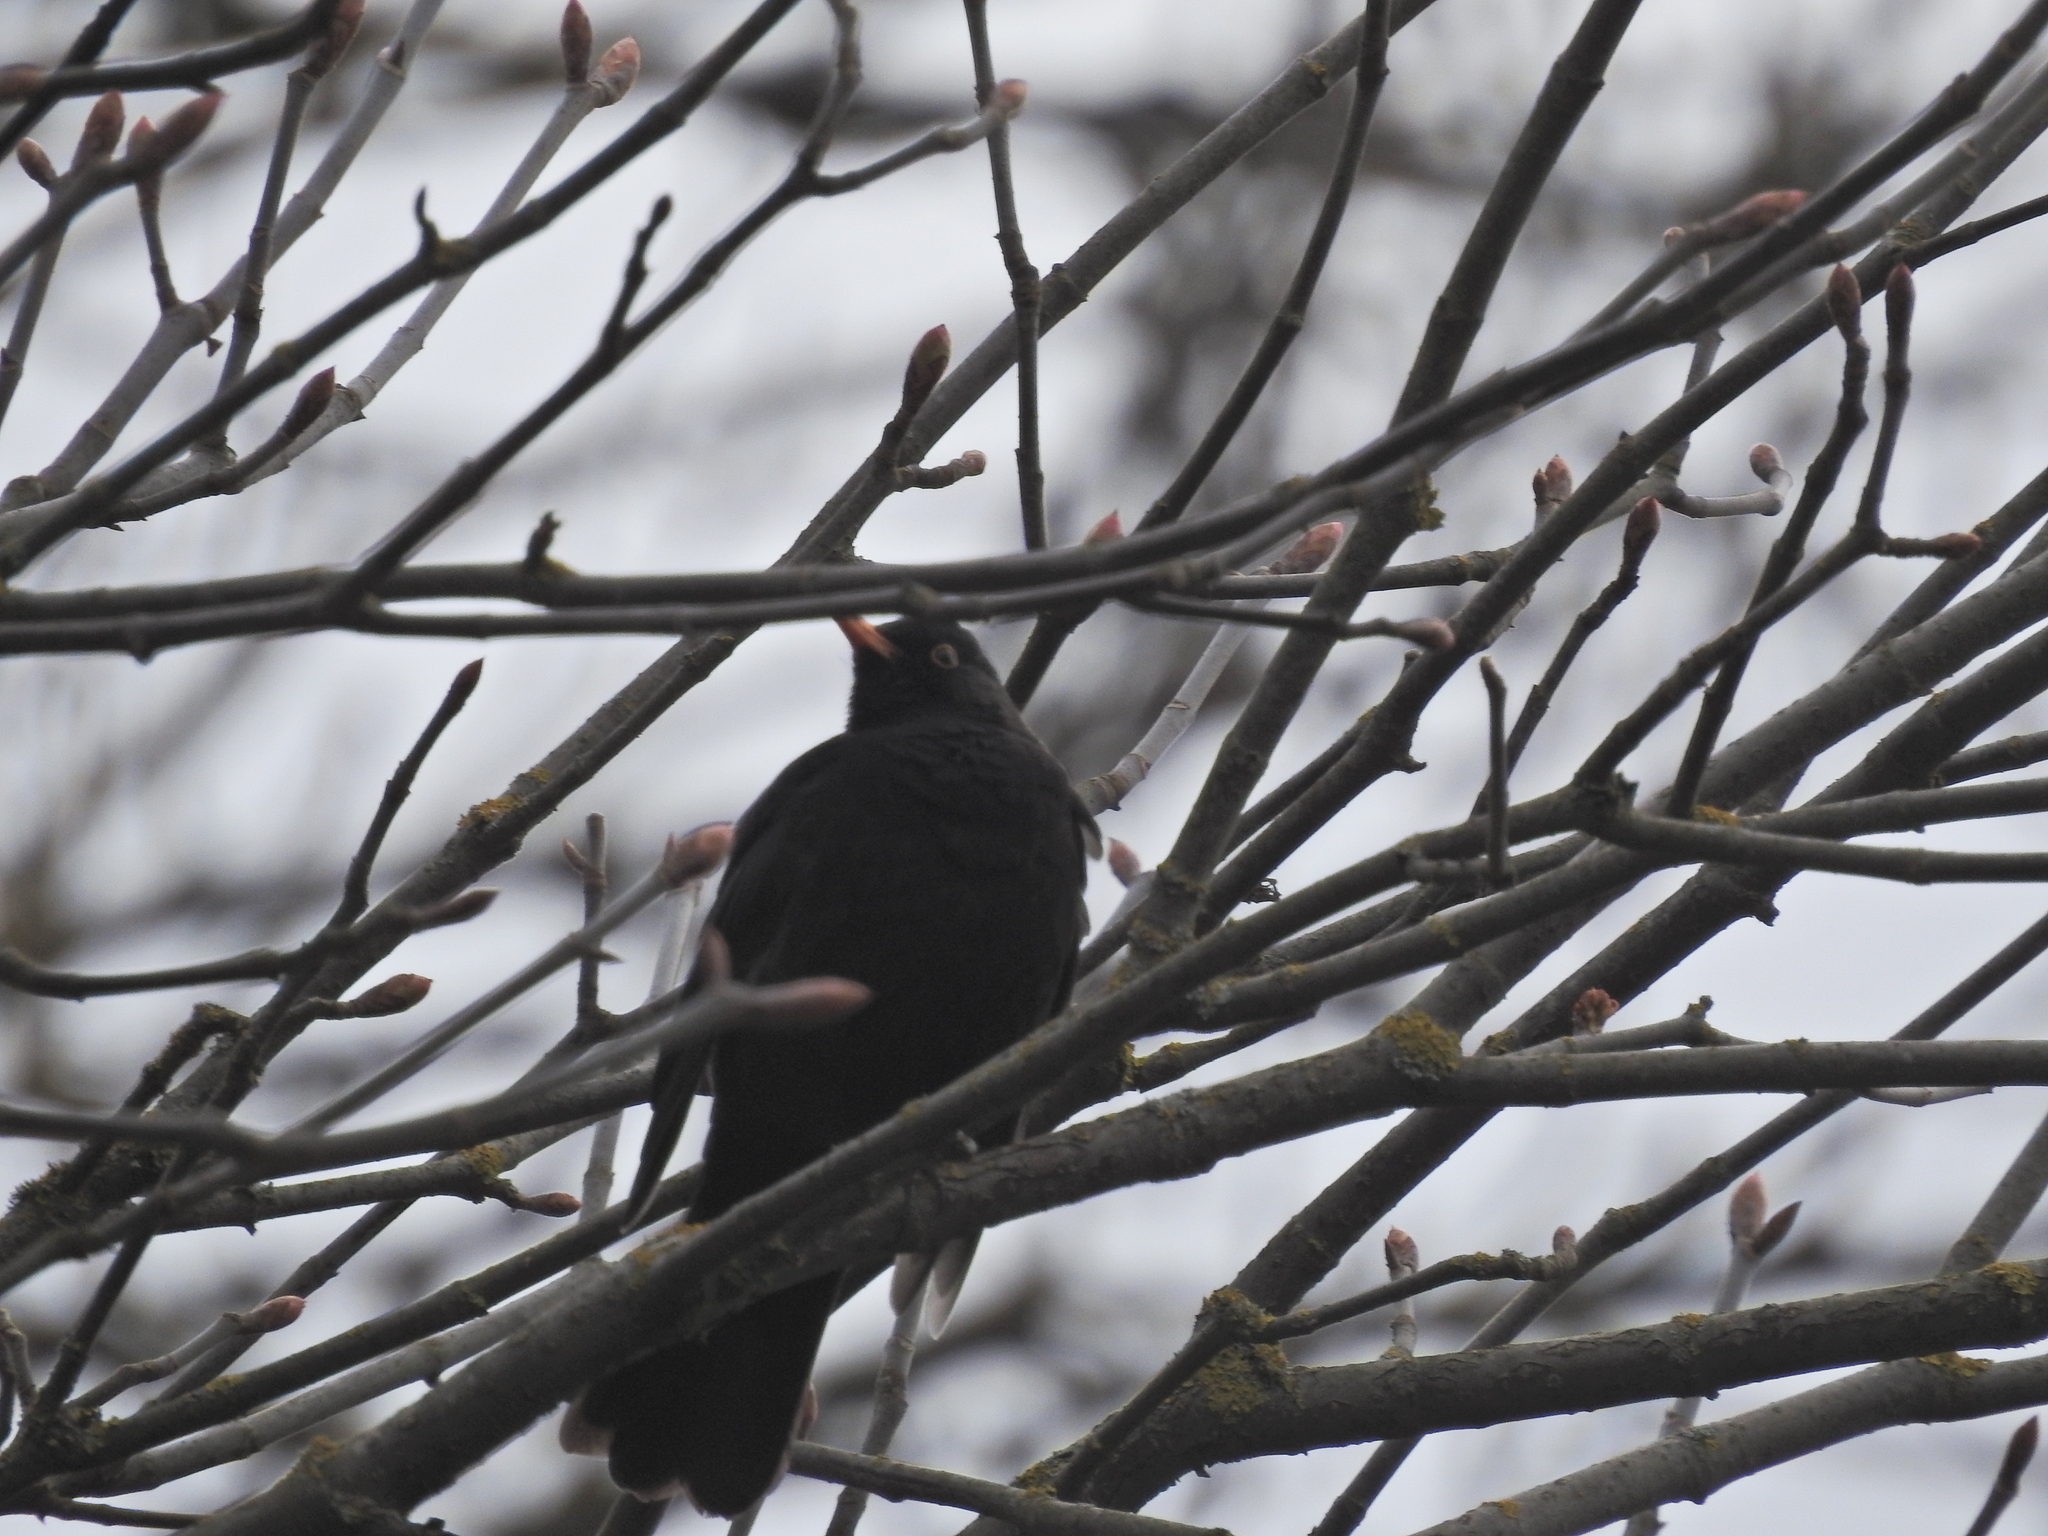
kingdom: Animalia
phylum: Chordata
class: Aves
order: Passeriformes
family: Turdidae
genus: Turdus
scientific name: Turdus merula
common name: Common blackbird
